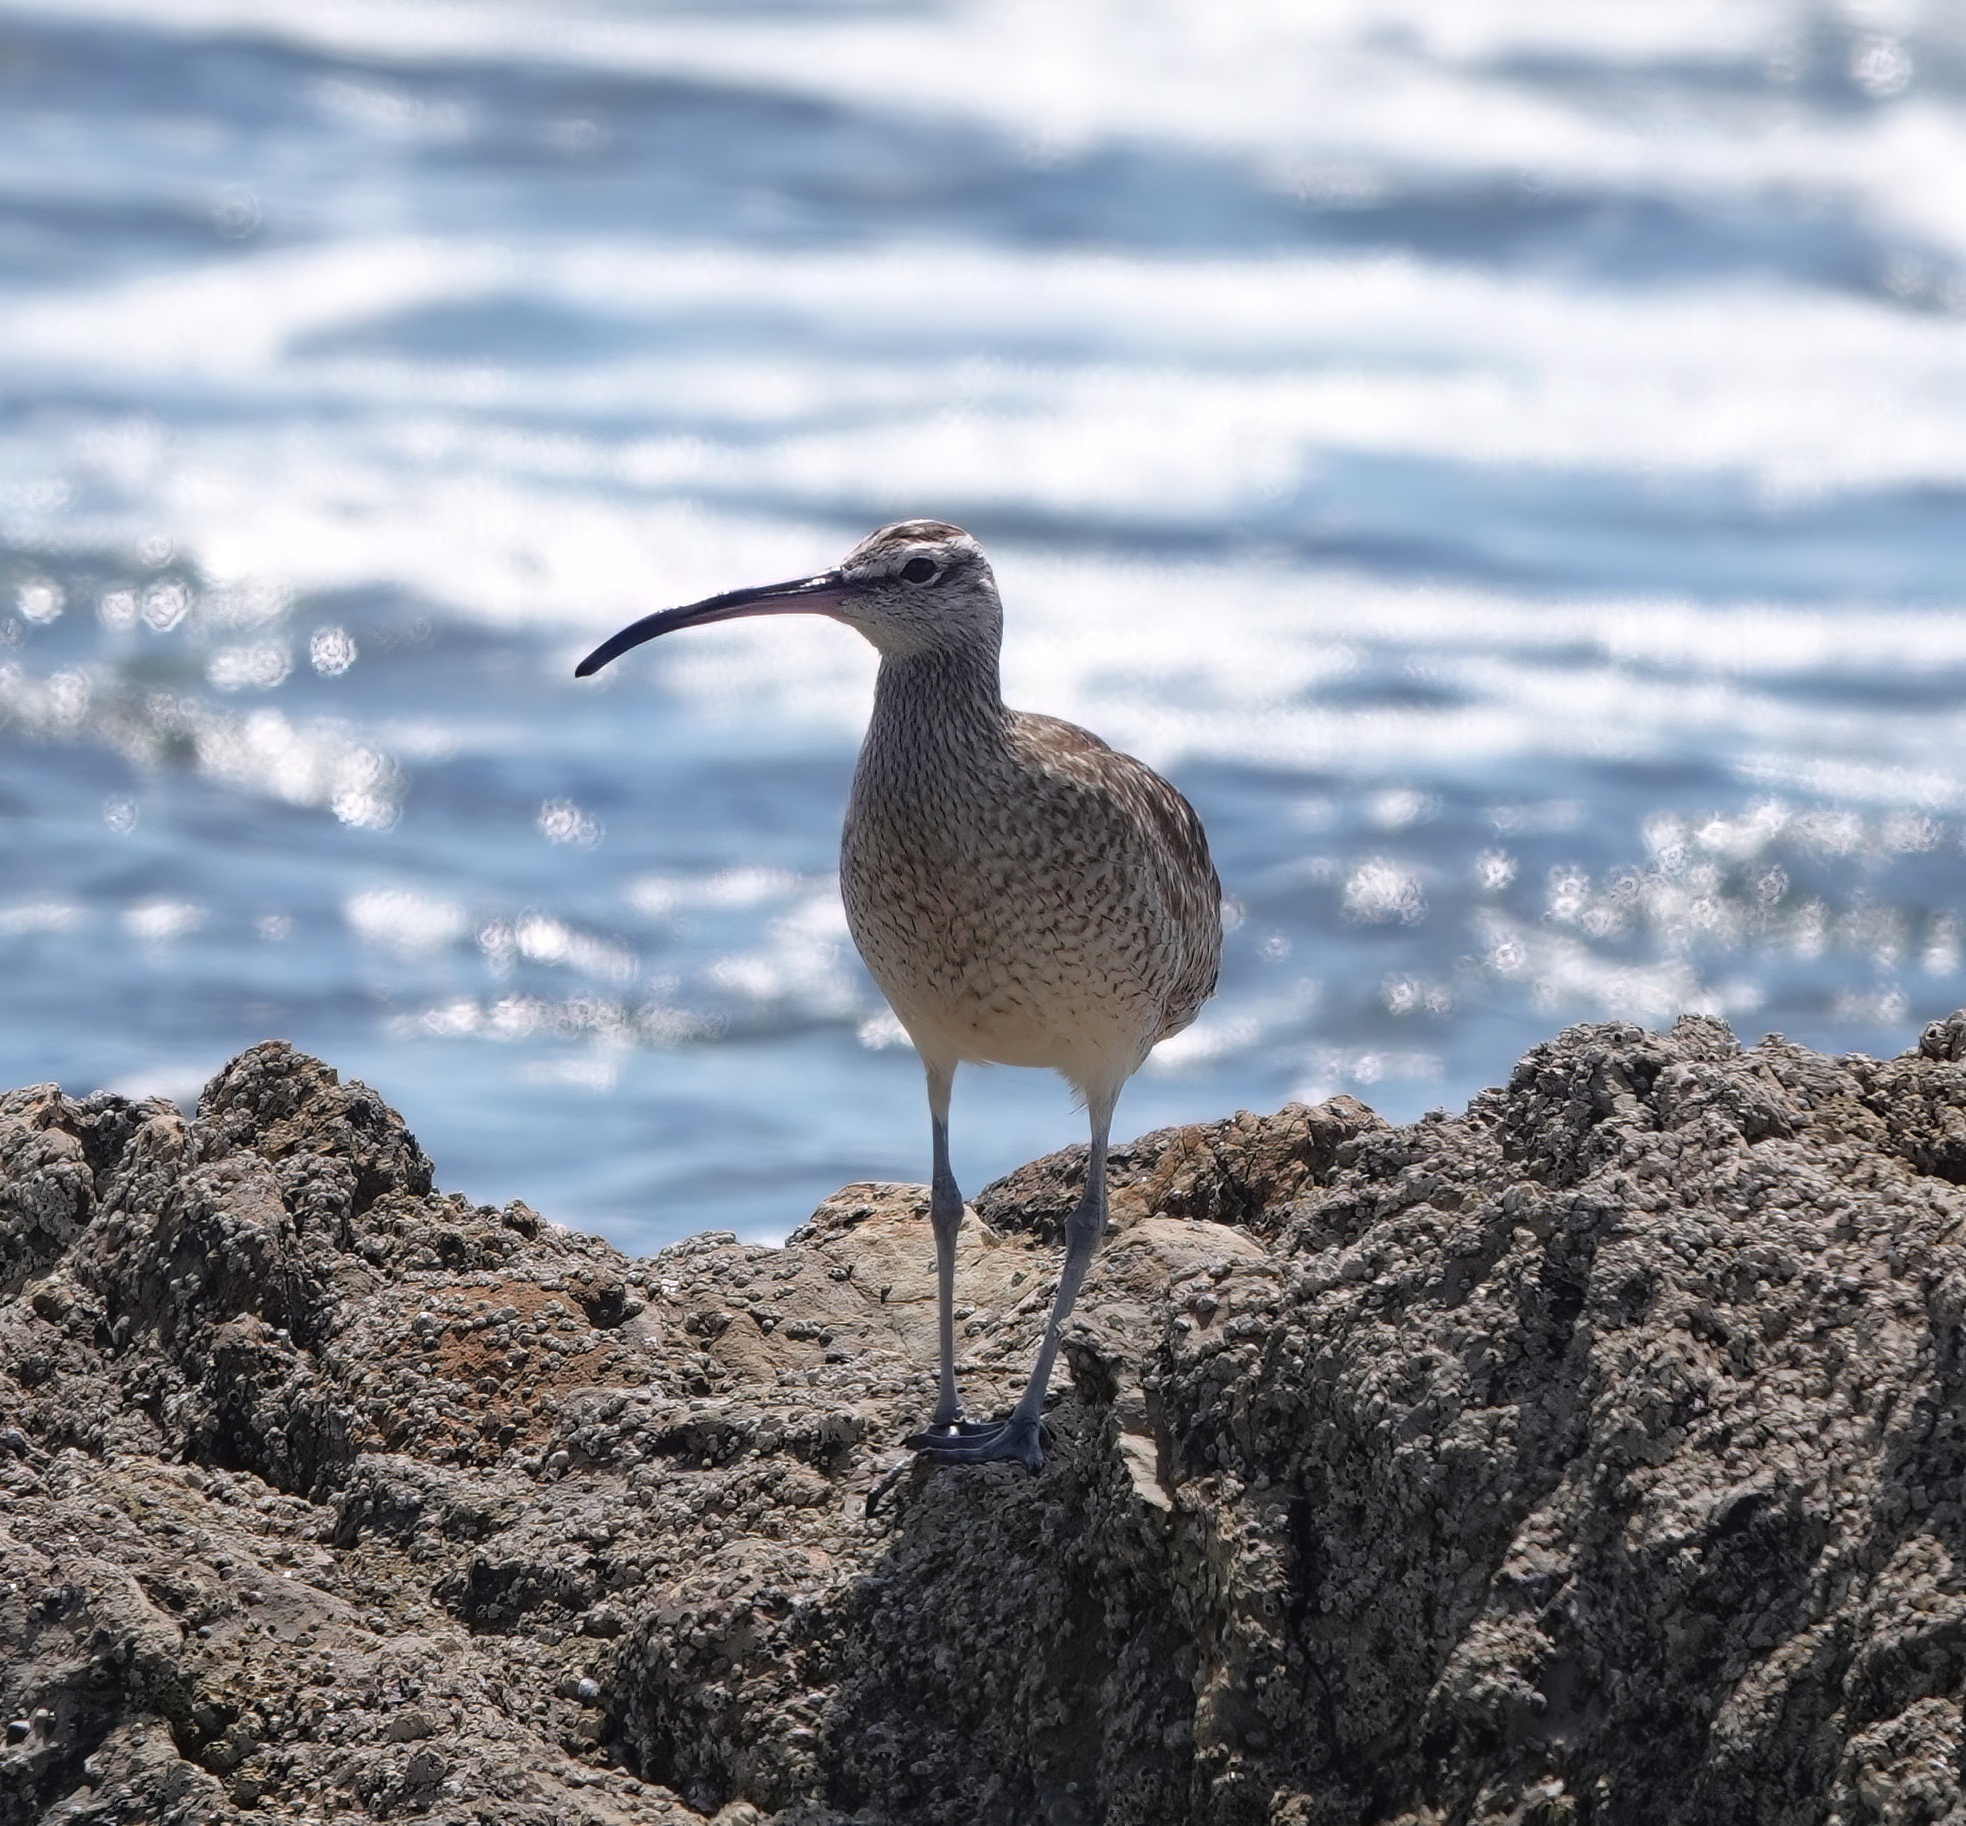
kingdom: Animalia
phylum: Chordata
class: Aves
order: Charadriiformes
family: Scolopacidae
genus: Numenius
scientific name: Numenius phaeopus
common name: Whimbrel
